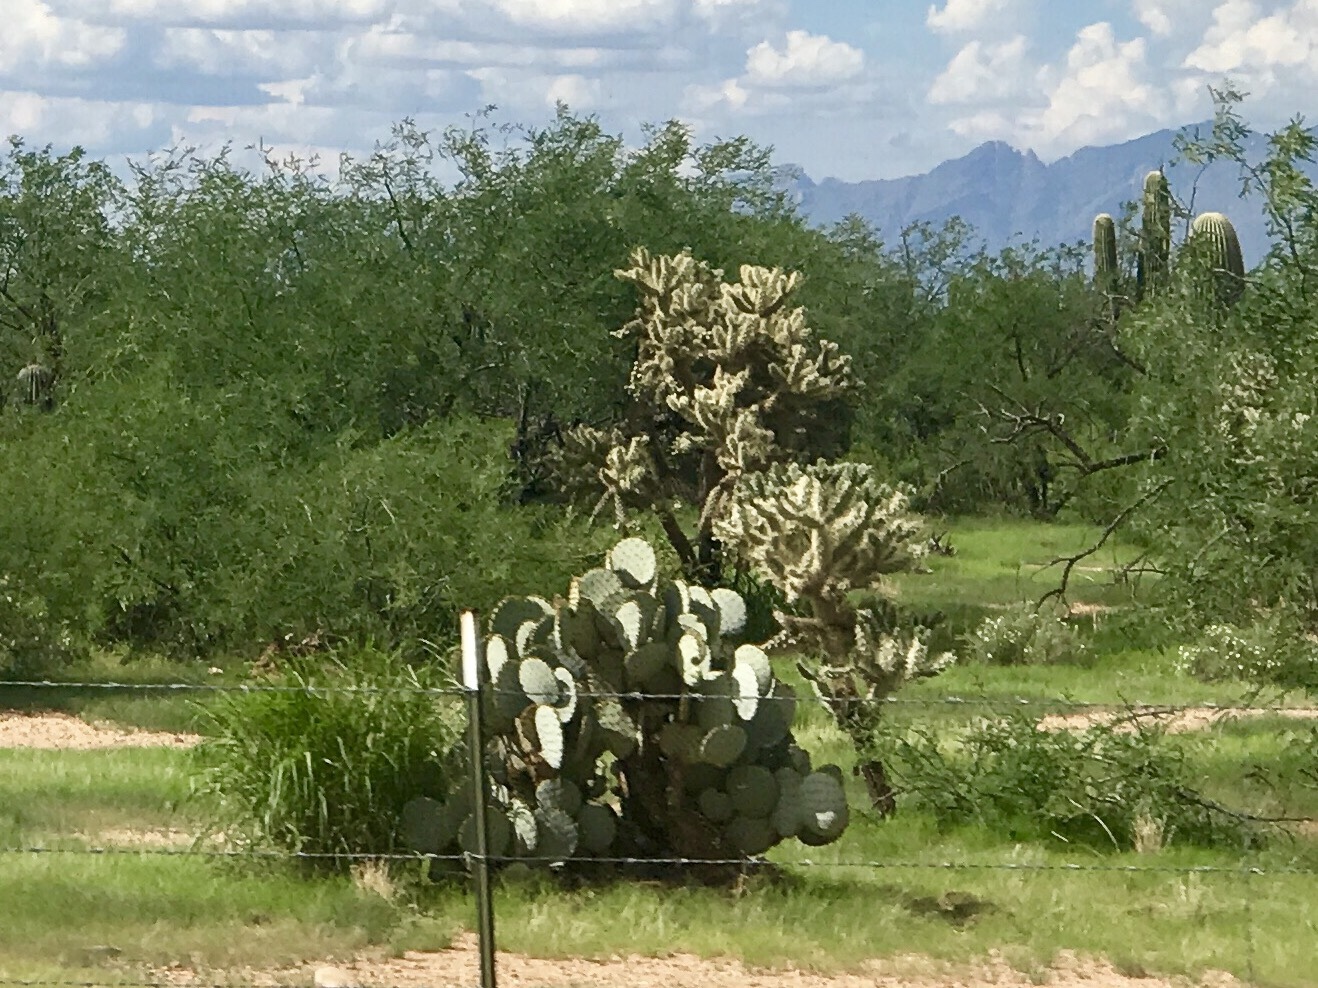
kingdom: Plantae
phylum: Tracheophyta
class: Magnoliopsida
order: Caryophyllales
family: Cactaceae
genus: Opuntia
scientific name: Opuntia gosseliniana
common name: Violet prickly-pear
